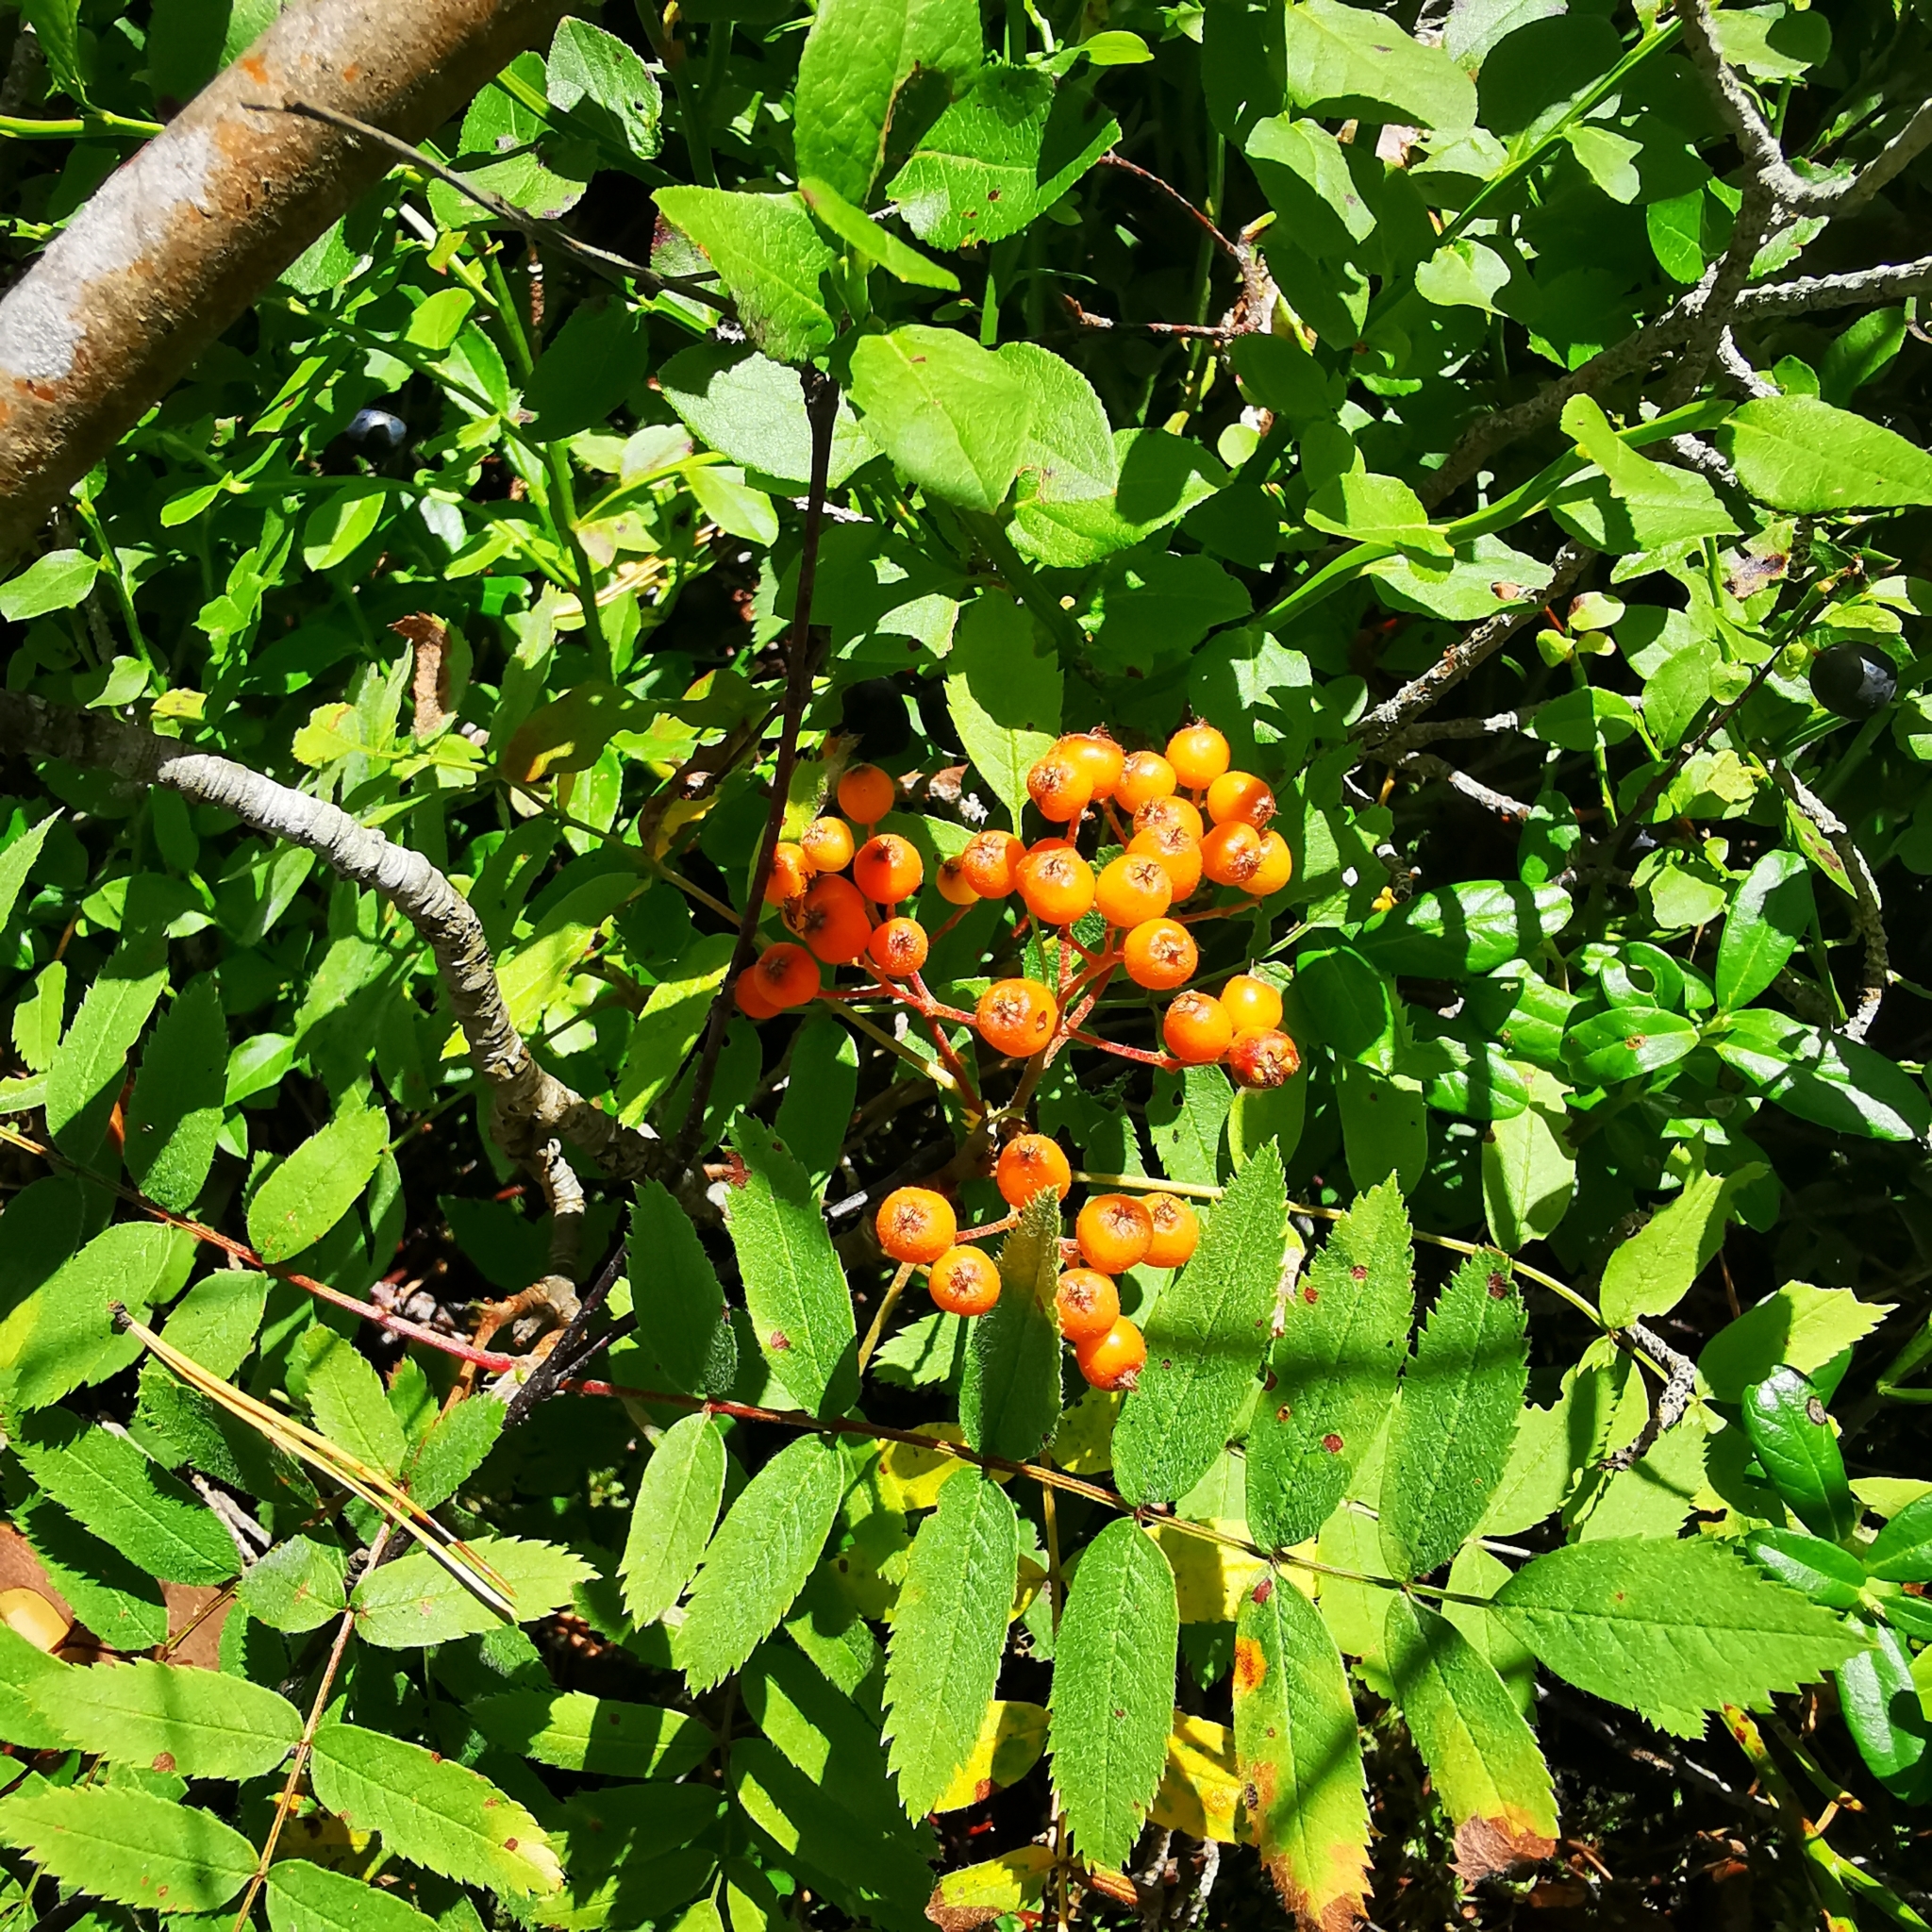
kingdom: Plantae
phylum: Tracheophyta
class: Magnoliopsida
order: Rosales
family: Rosaceae
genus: Sorbus
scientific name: Sorbus aucuparia
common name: Rowan
